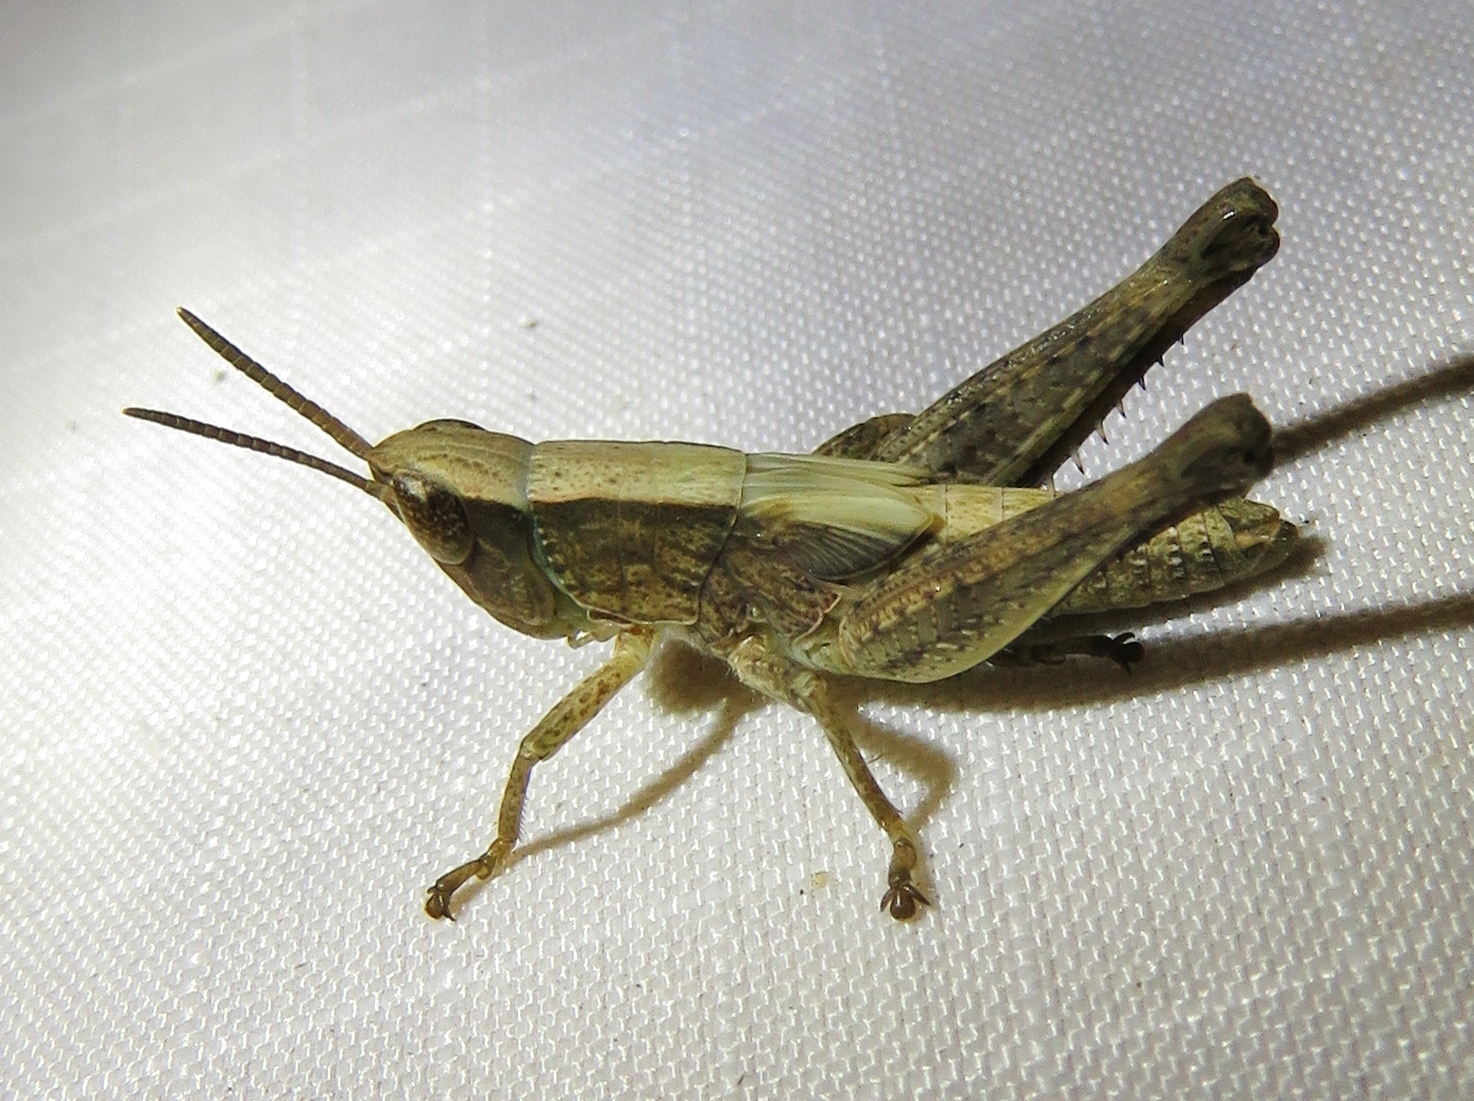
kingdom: Animalia
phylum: Arthropoda
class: Insecta
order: Orthoptera
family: Acrididae
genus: Dichromorpha
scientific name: Dichromorpha viridis
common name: Short-winged green grasshopper
